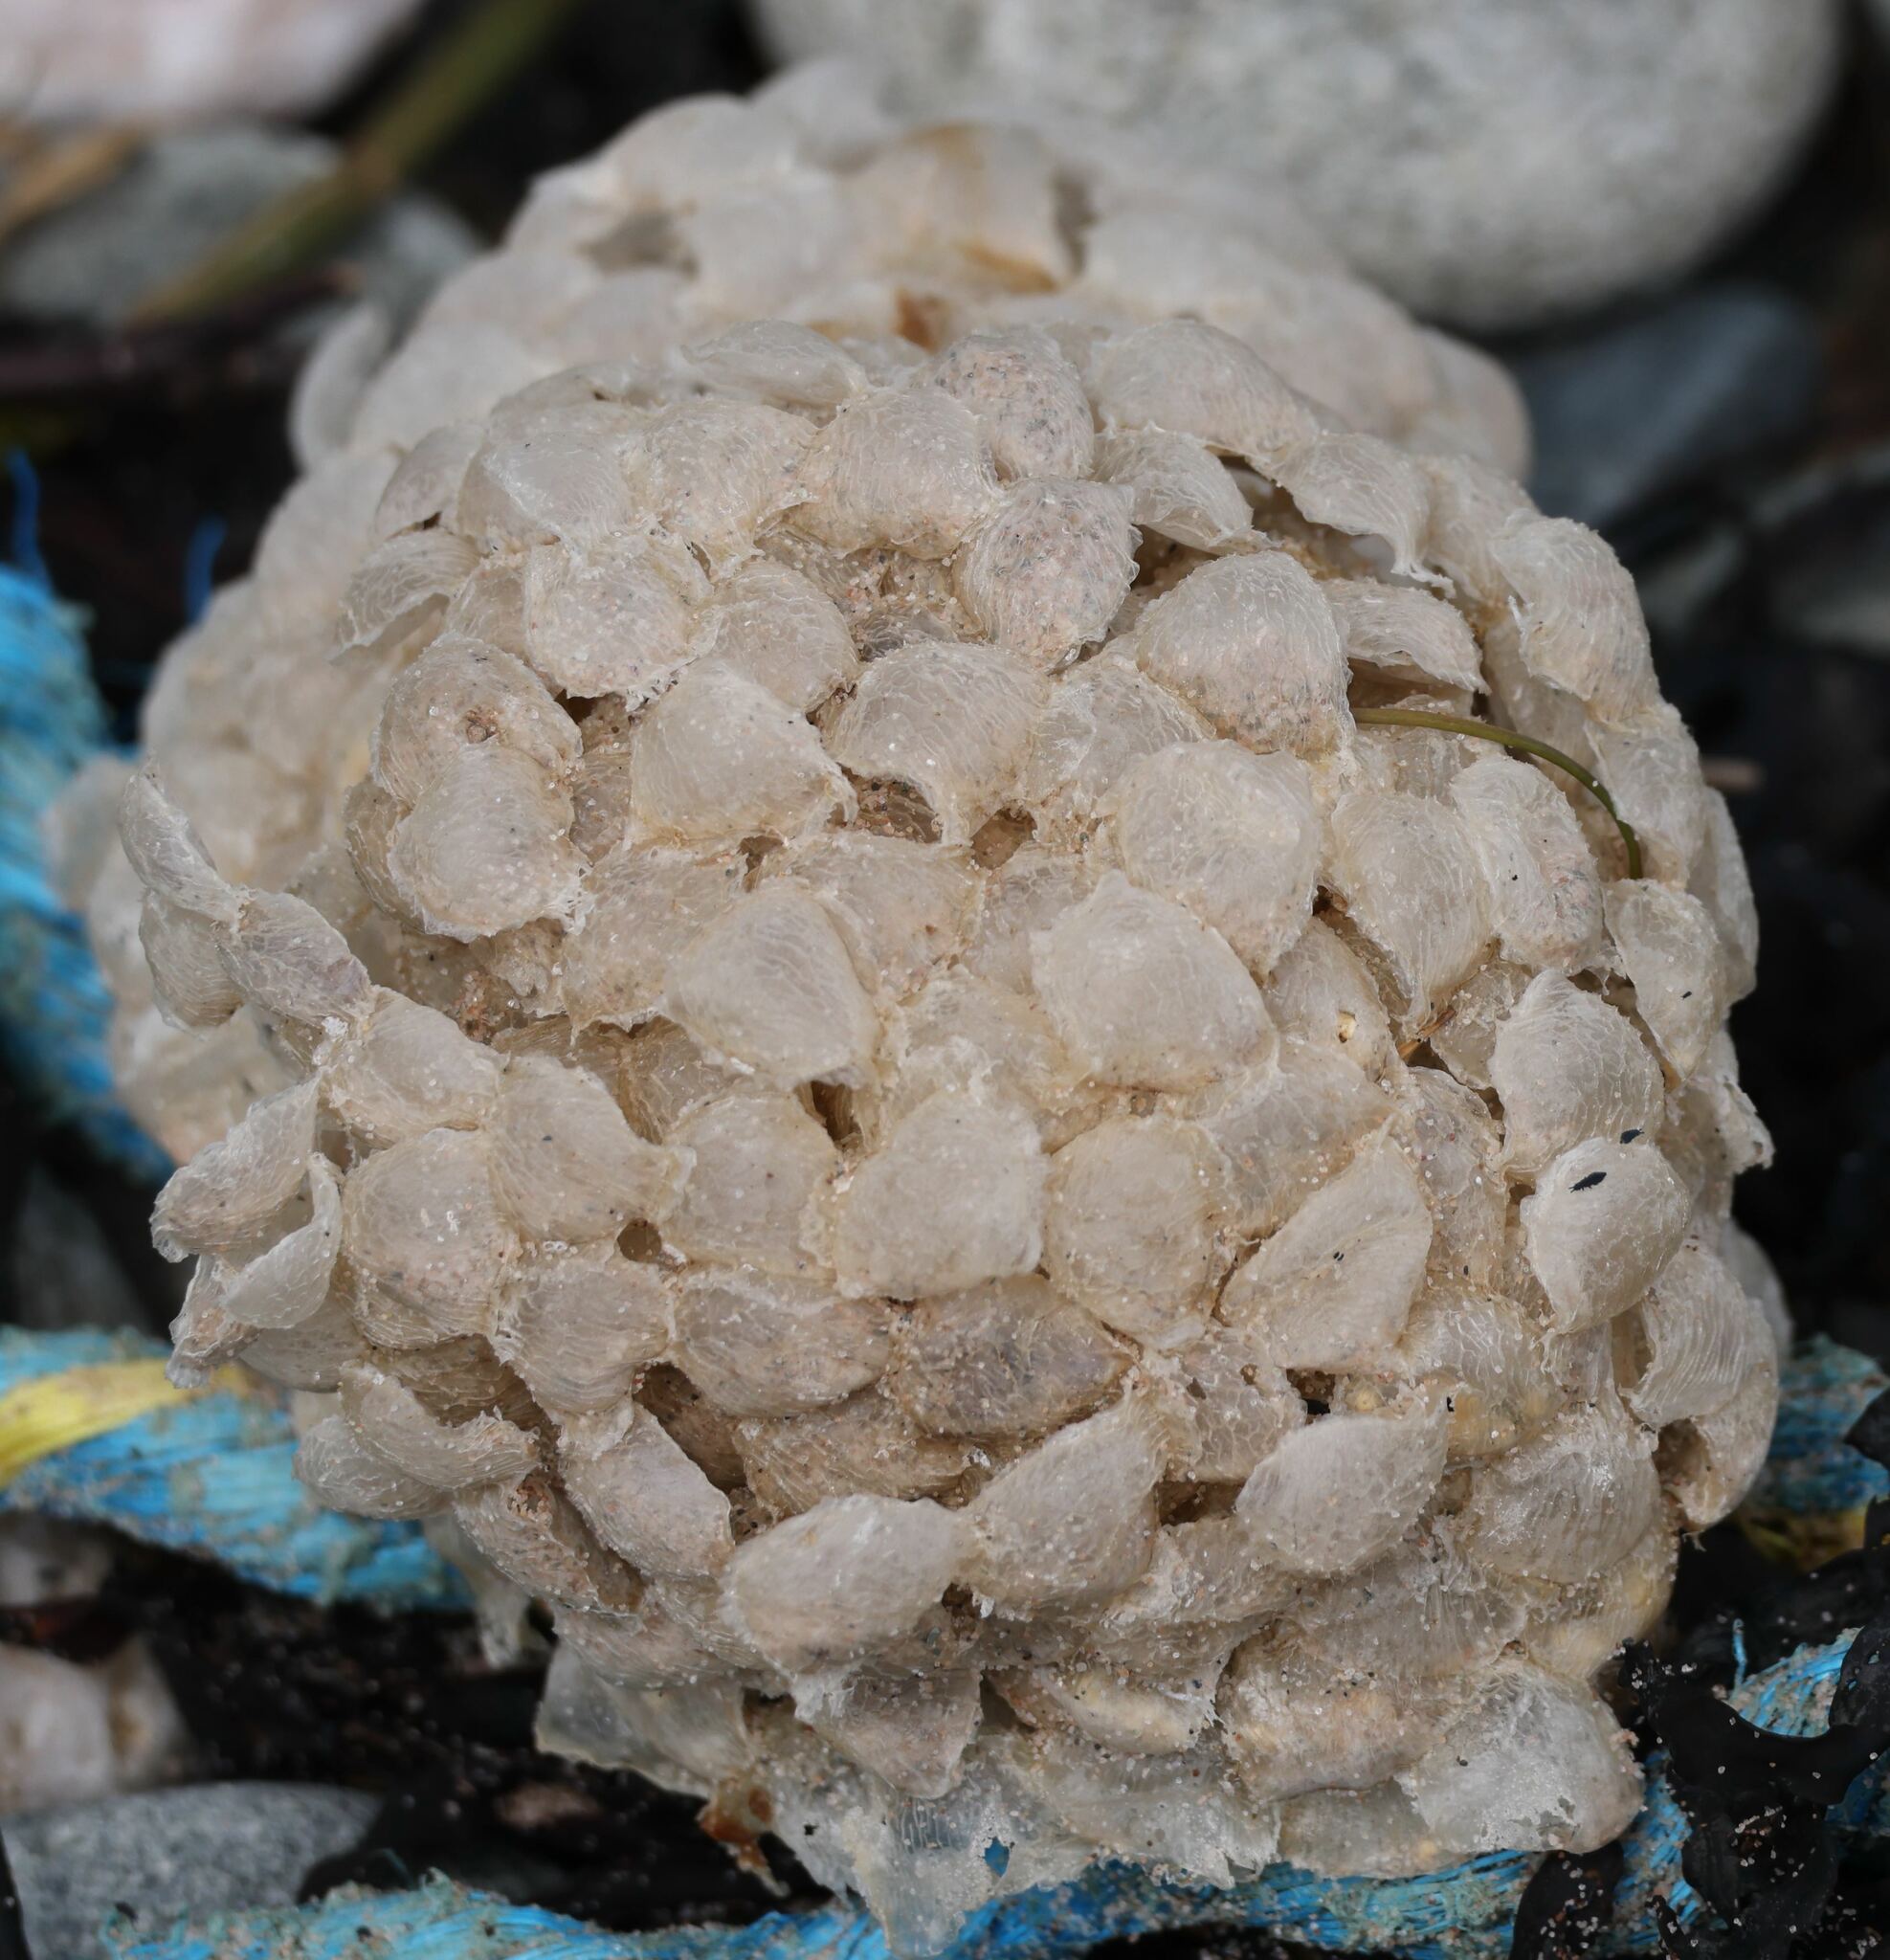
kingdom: Animalia
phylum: Mollusca
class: Gastropoda
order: Neogastropoda
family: Buccinidae
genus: Buccinum
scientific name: Buccinum undatum
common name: Common whelk
